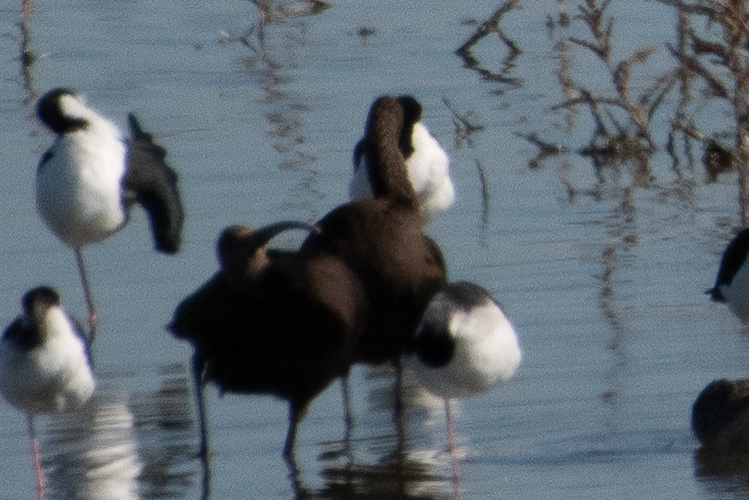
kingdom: Animalia
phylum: Chordata
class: Aves
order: Pelecaniformes
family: Threskiornithidae
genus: Plegadis
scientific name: Plegadis chihi
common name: White-faced ibis
